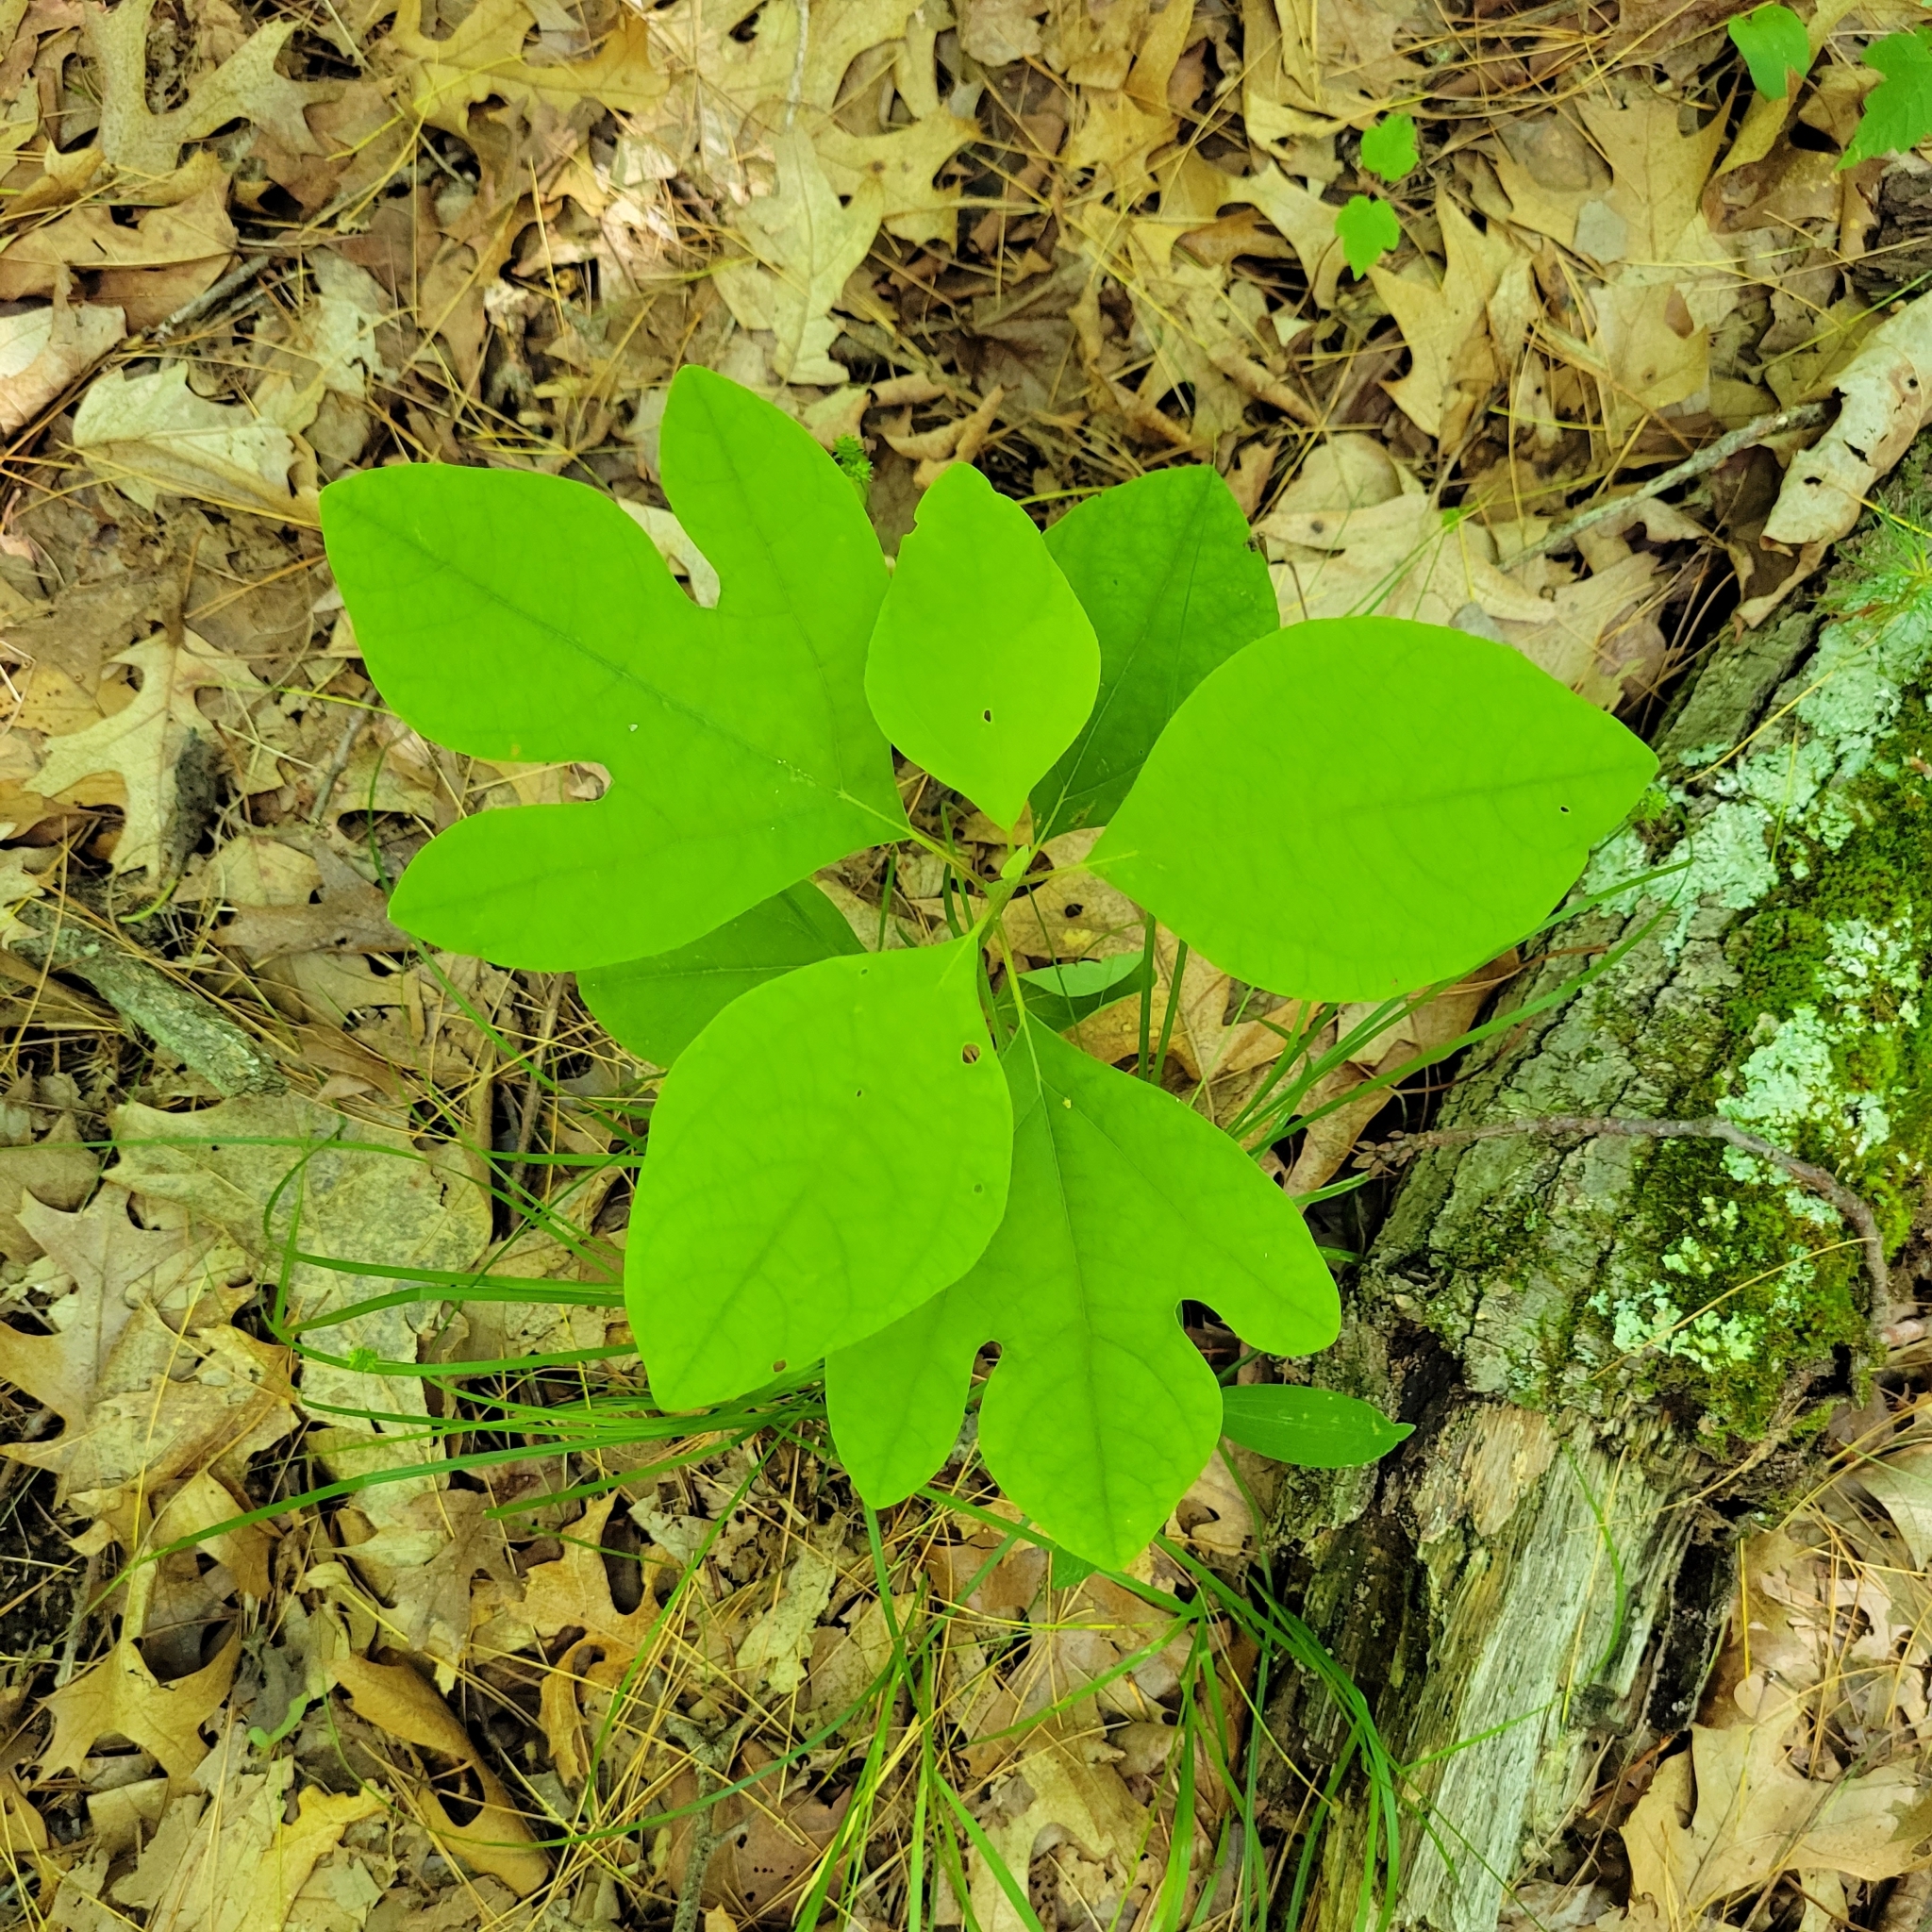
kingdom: Plantae
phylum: Tracheophyta
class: Magnoliopsida
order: Laurales
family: Lauraceae
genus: Sassafras
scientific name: Sassafras albidum
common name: Sassafras
